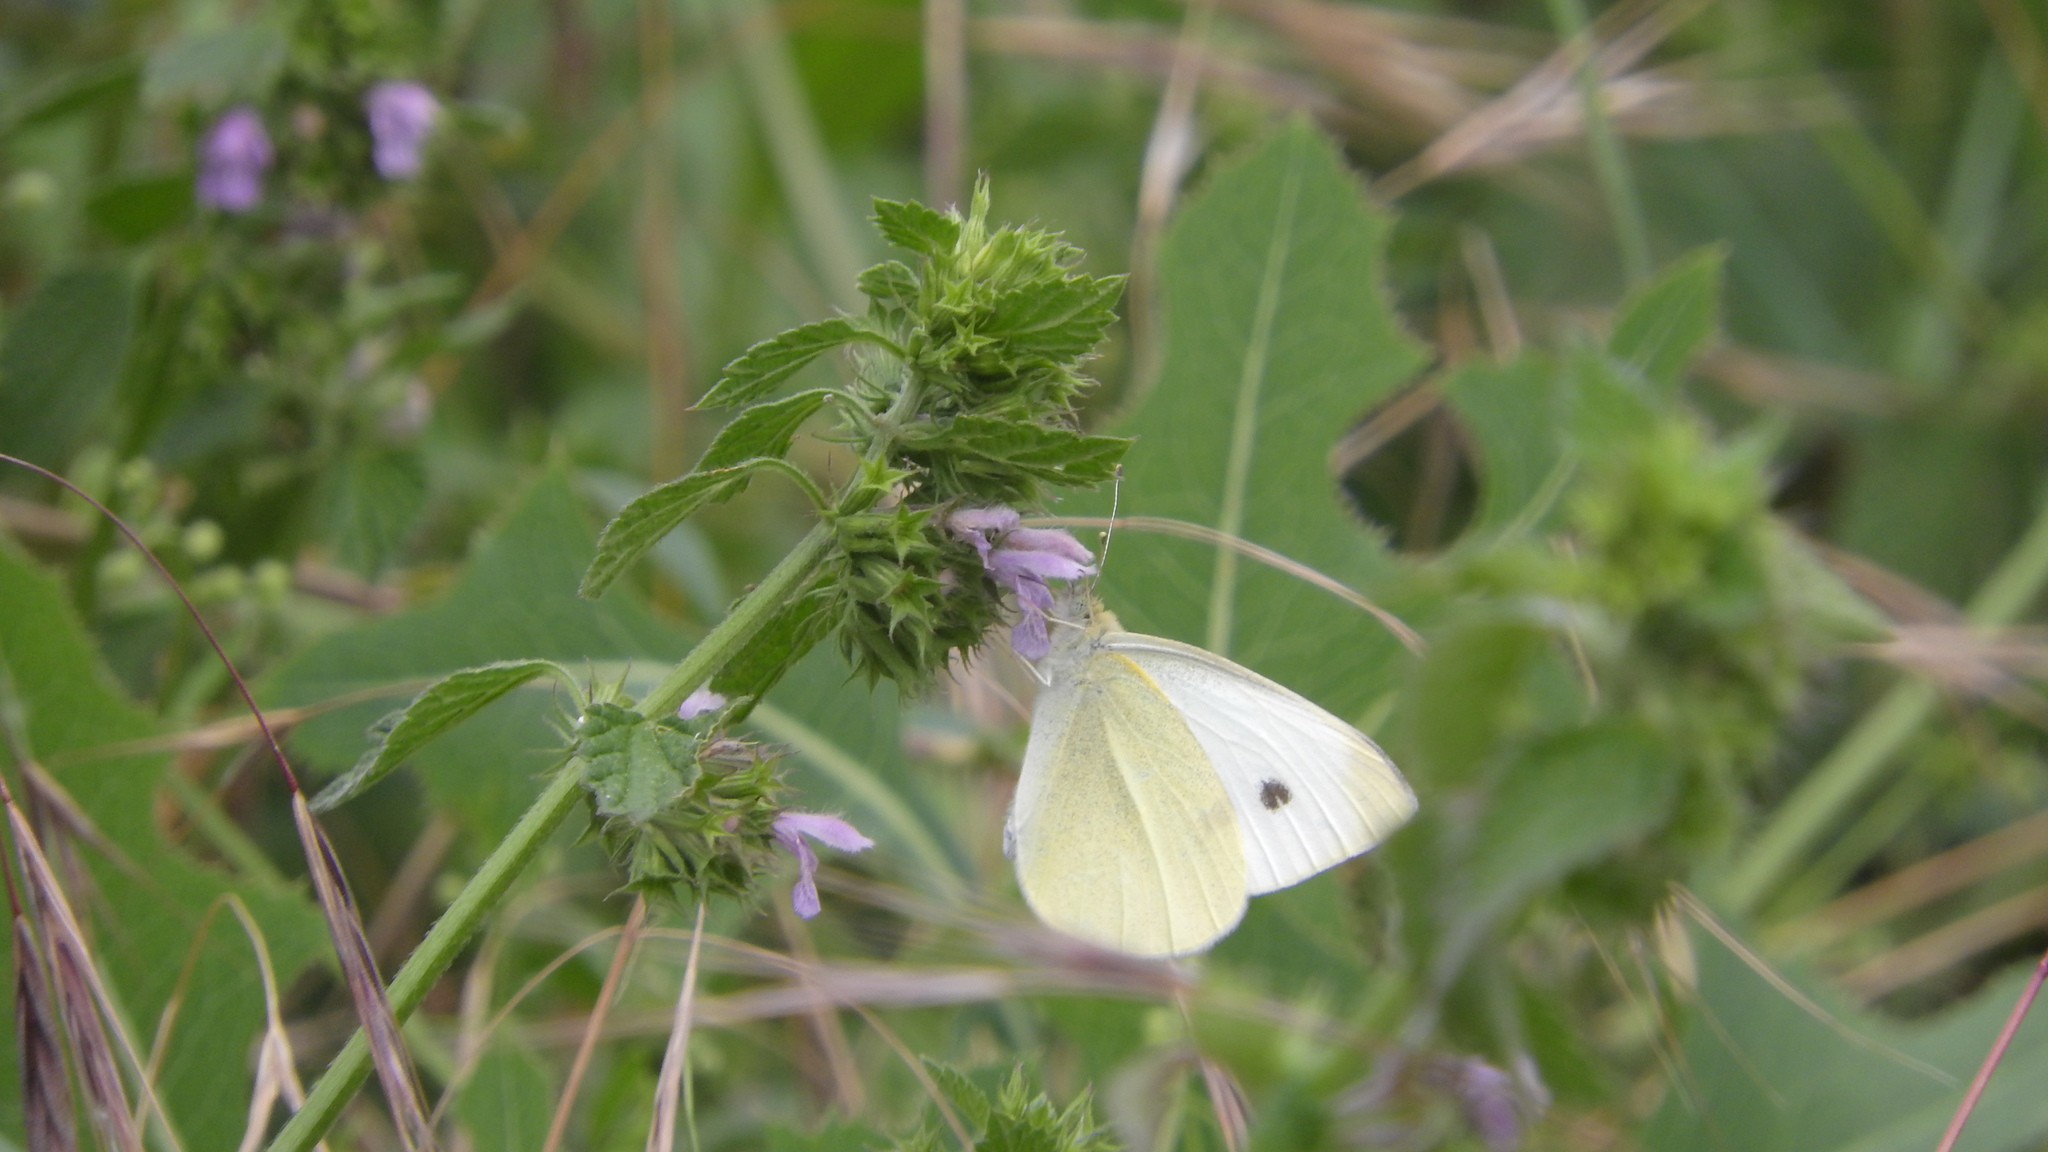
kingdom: Animalia
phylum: Arthropoda
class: Insecta
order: Lepidoptera
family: Pieridae
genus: Pieris
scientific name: Pieris rapae
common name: Small white
